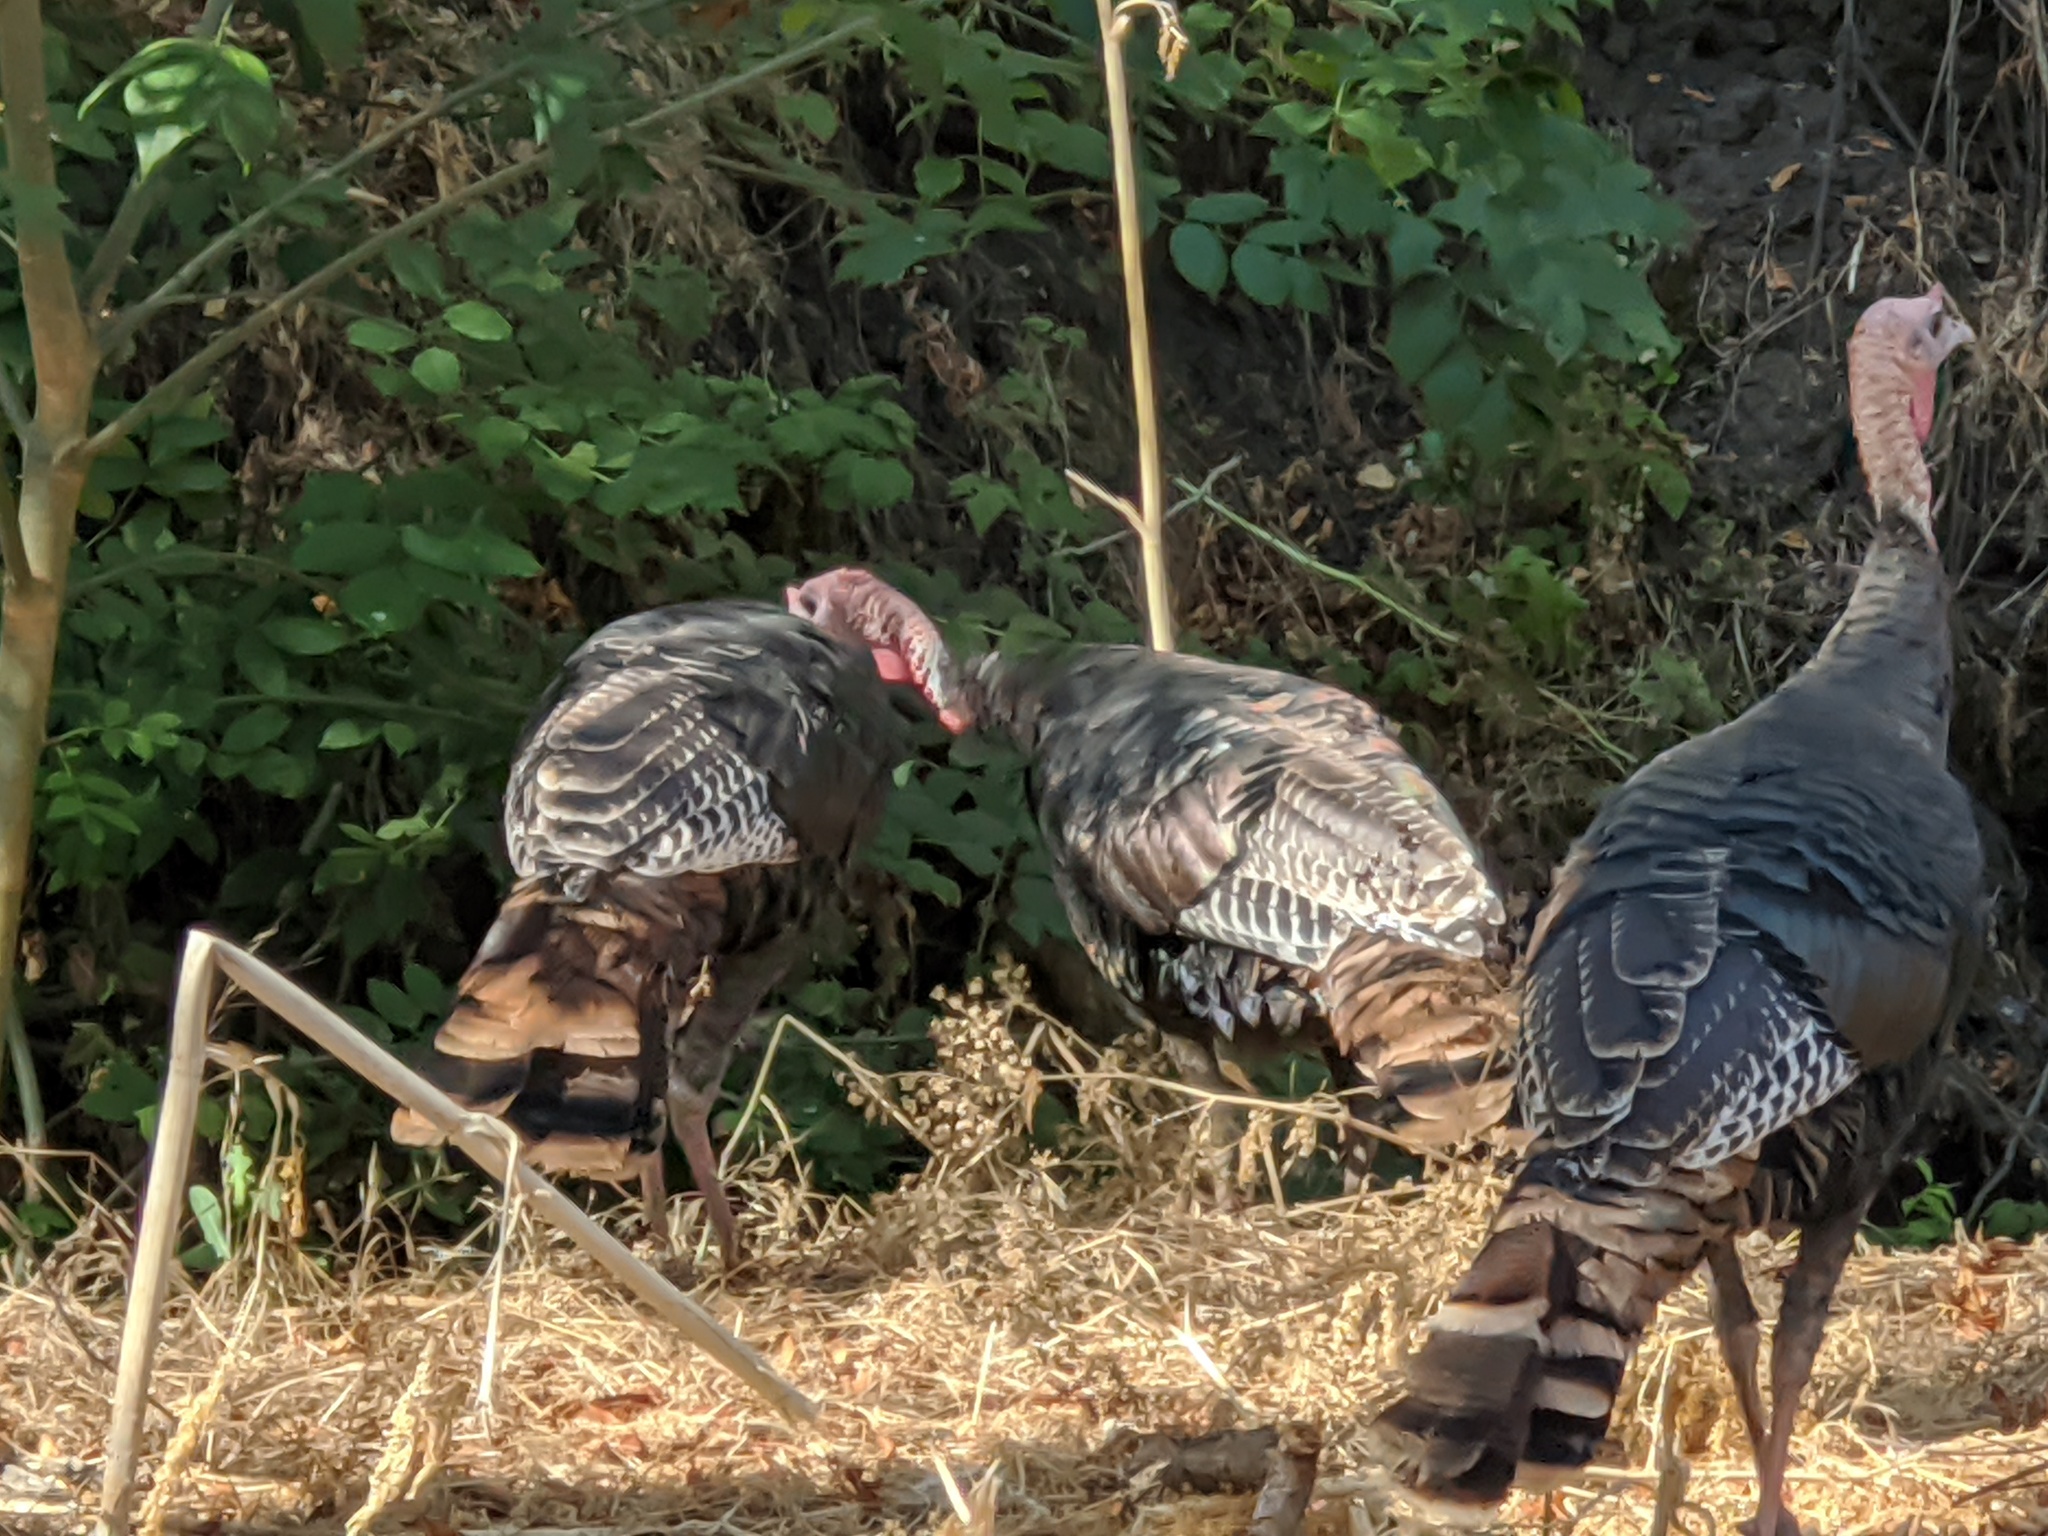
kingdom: Animalia
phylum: Chordata
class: Aves
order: Galliformes
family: Phasianidae
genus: Meleagris
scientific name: Meleagris gallopavo
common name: Wild turkey
